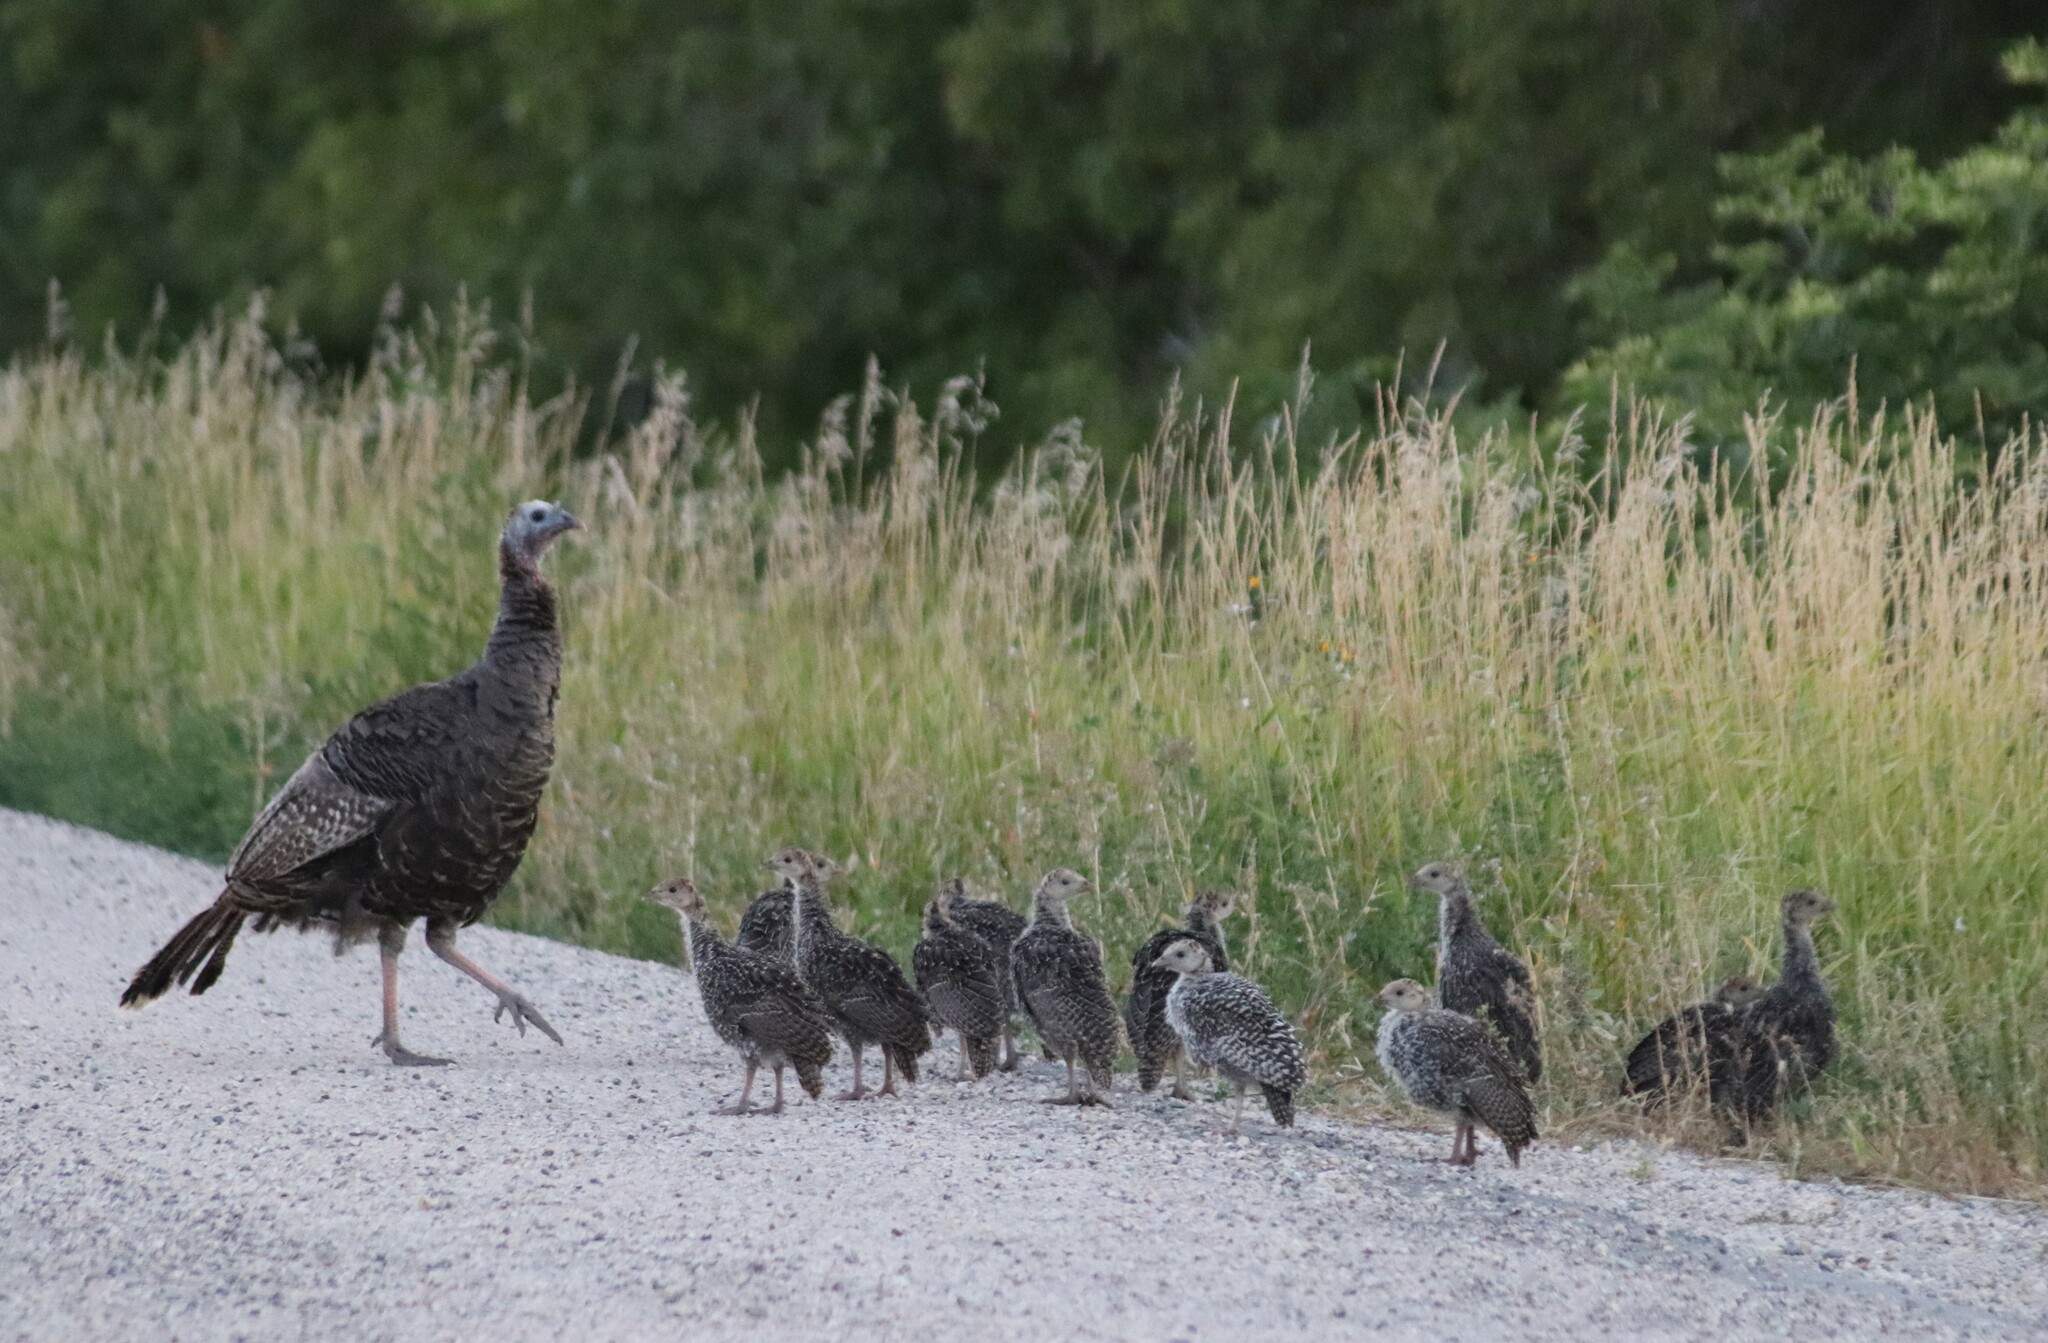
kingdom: Animalia
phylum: Chordata
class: Aves
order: Galliformes
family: Phasianidae
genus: Meleagris
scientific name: Meleagris gallopavo
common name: Wild turkey
